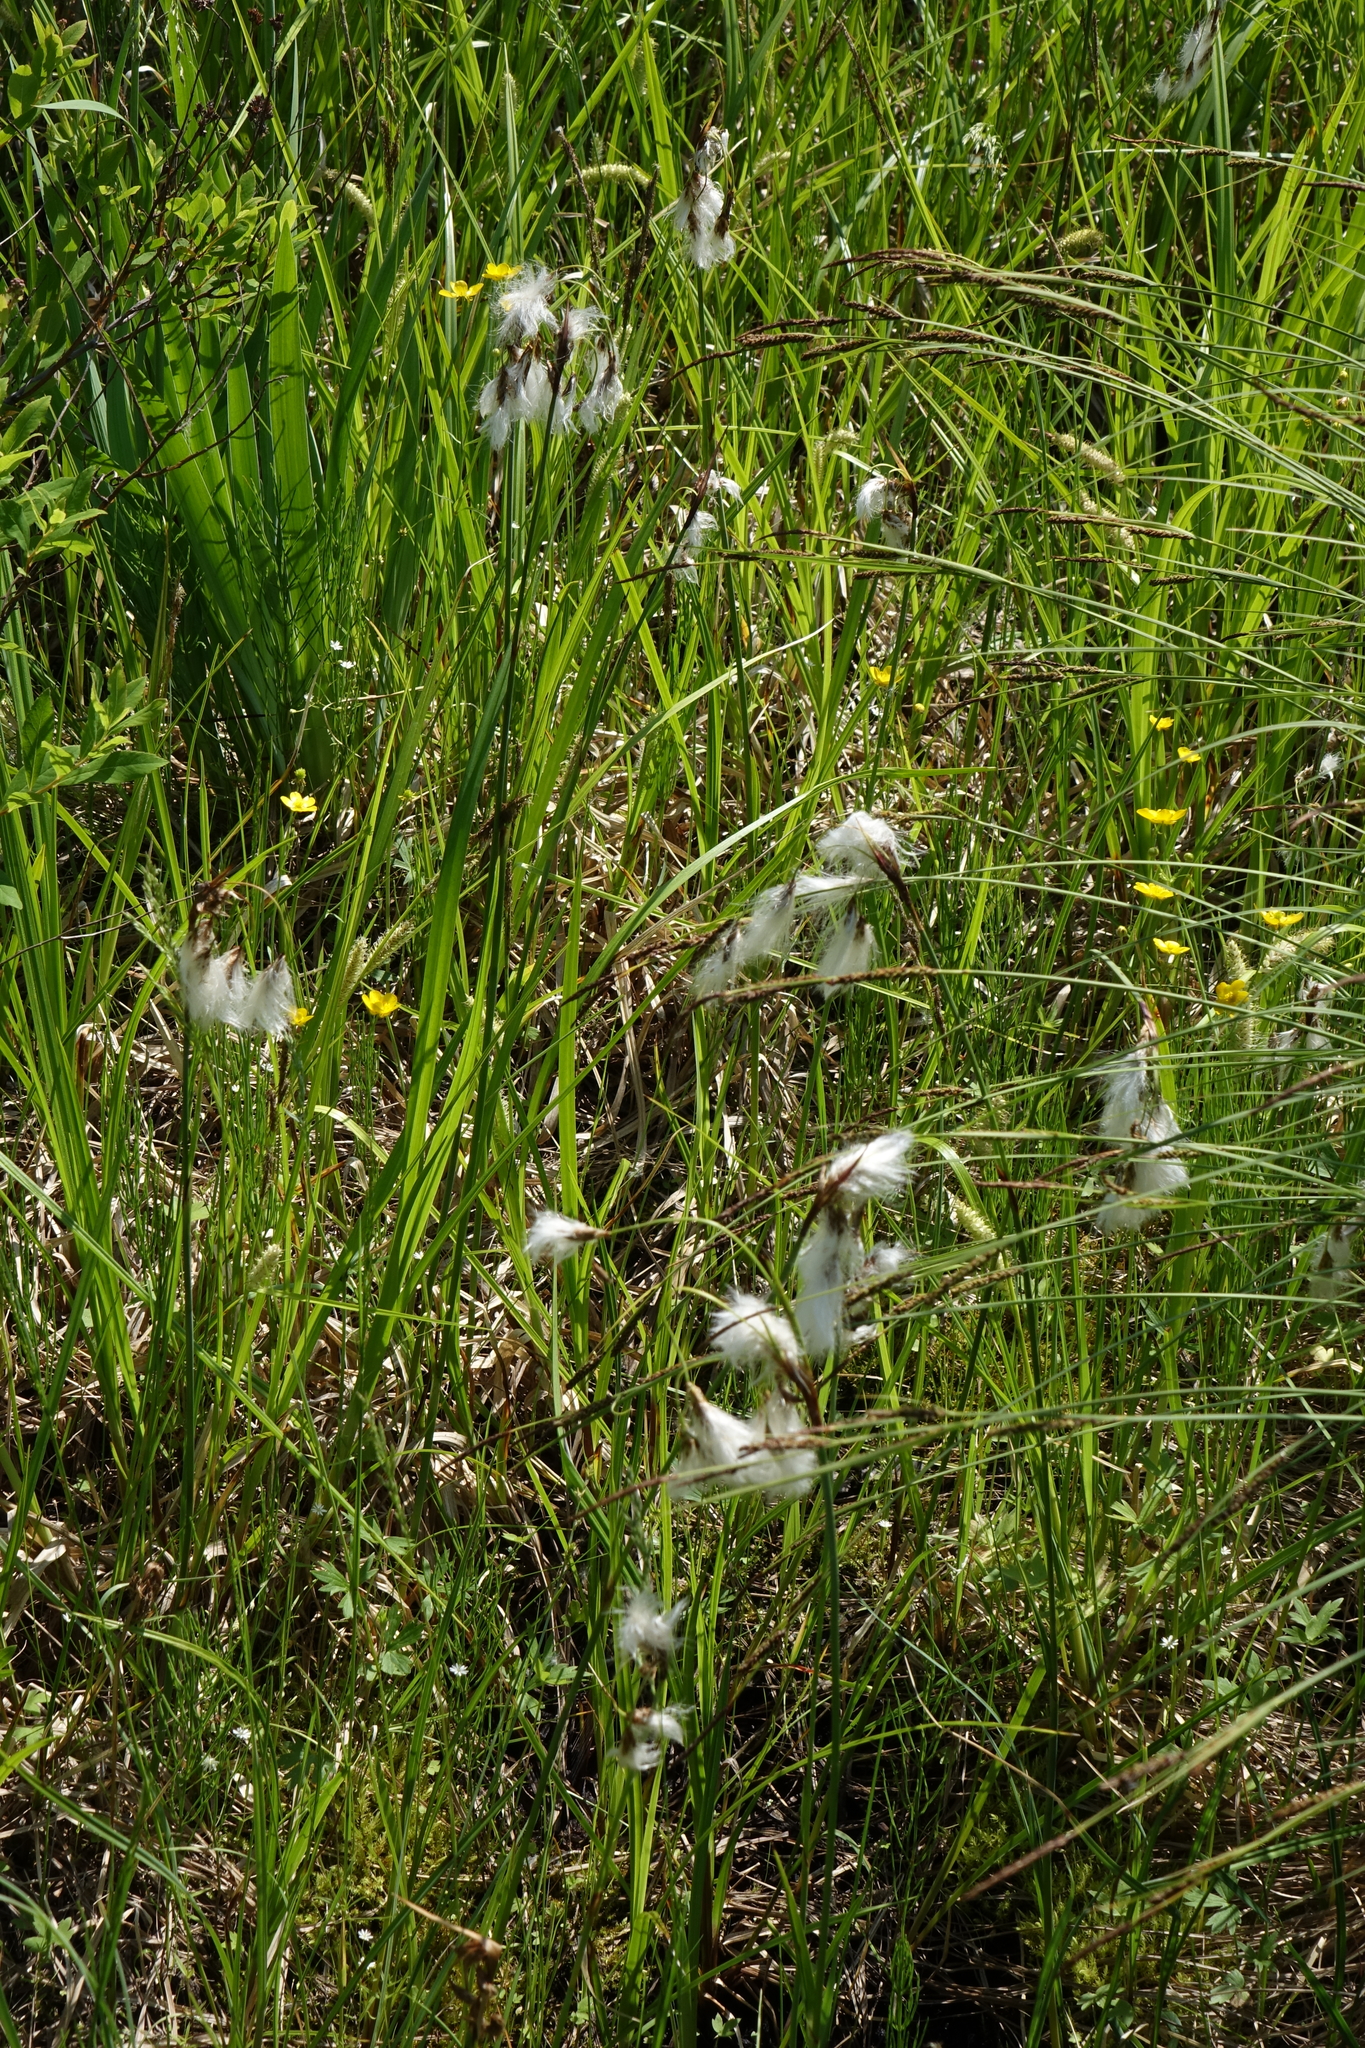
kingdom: Plantae
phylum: Tracheophyta
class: Liliopsida
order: Poales
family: Cyperaceae
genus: Eriophorum
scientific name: Eriophorum angustifolium
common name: Common cottongrass
